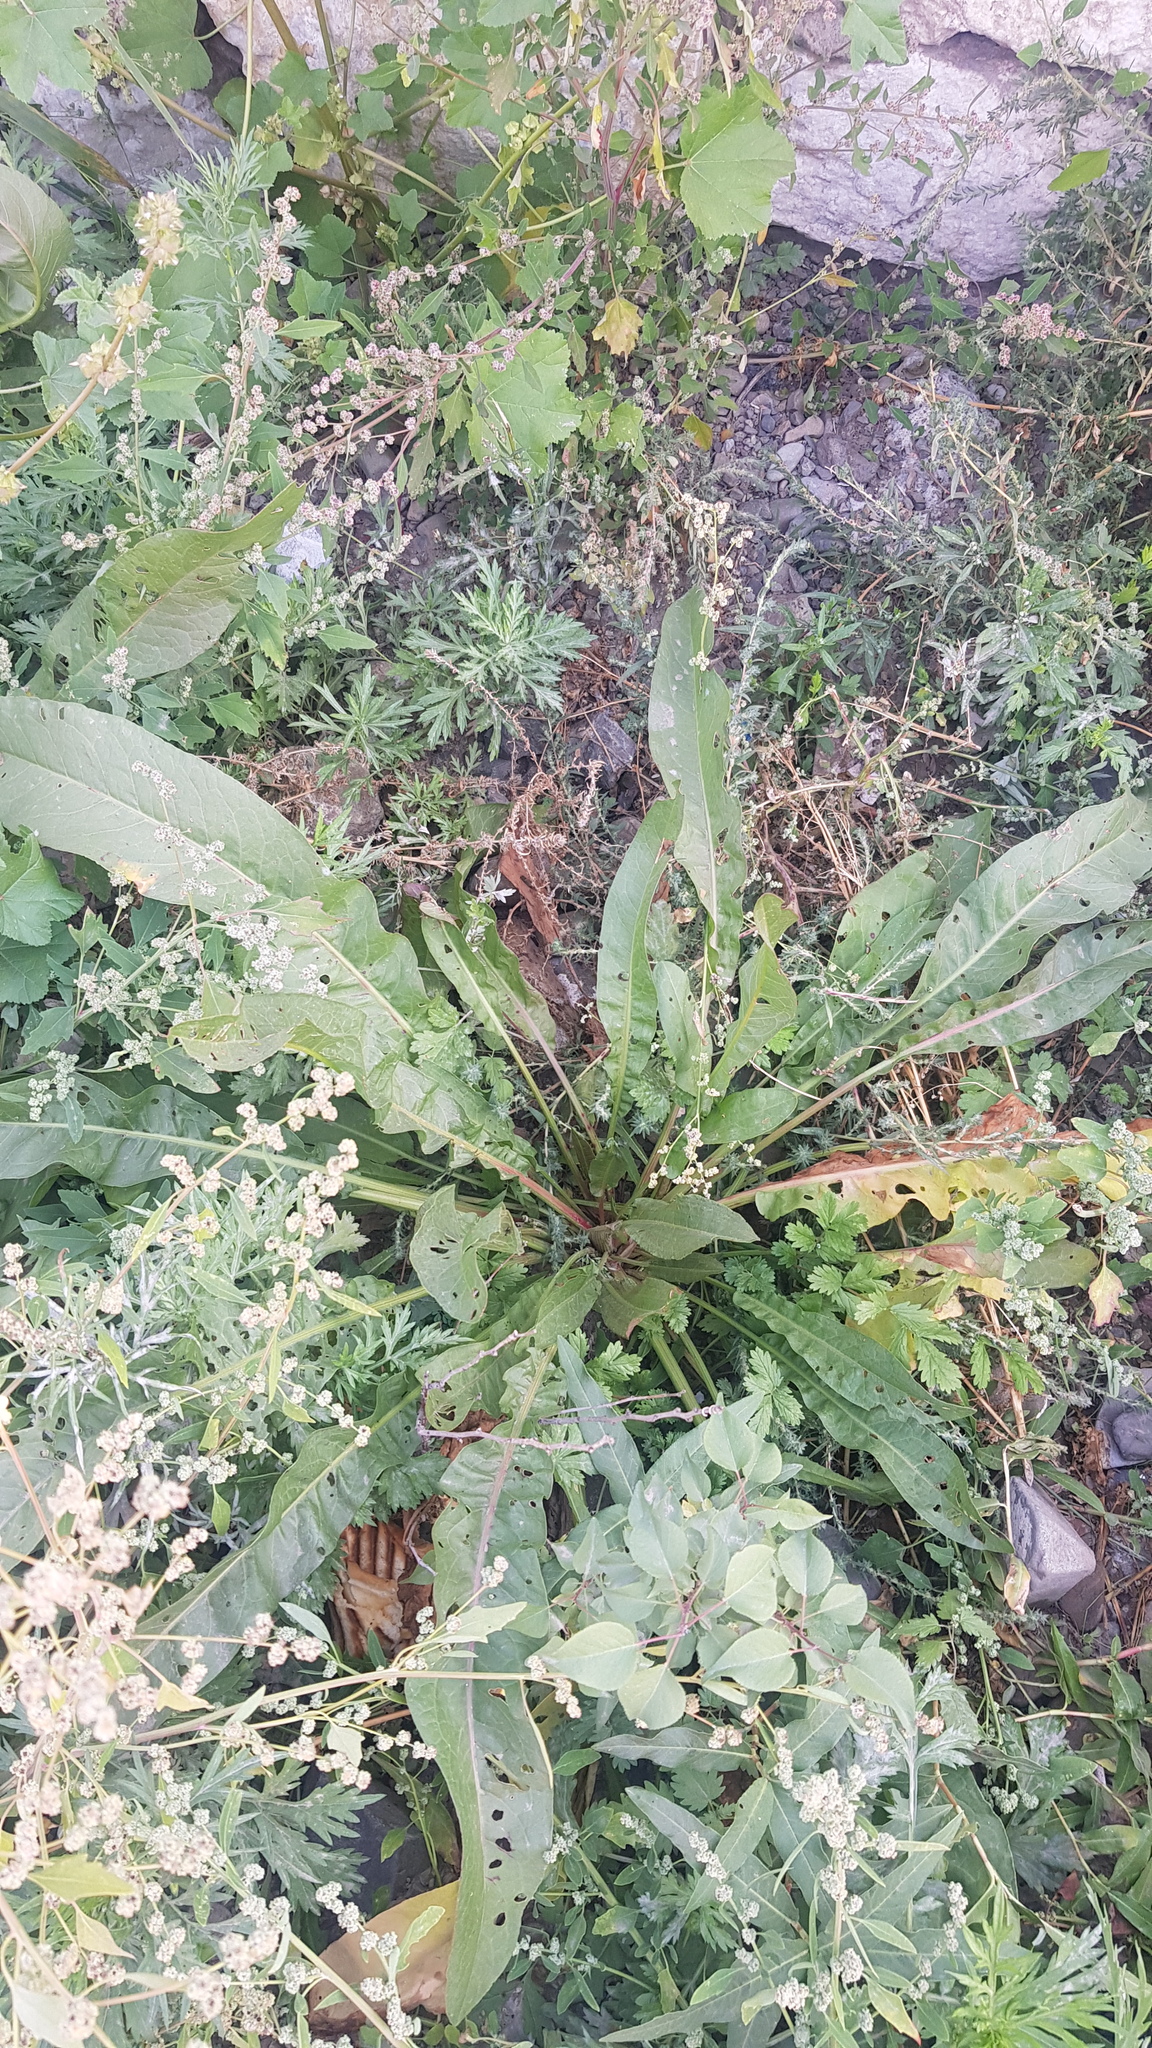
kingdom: Plantae
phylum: Tracheophyta
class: Magnoliopsida
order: Asterales
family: Asteraceae
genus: Cirsium
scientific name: Cirsium helenioides
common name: Melancholy thistle
